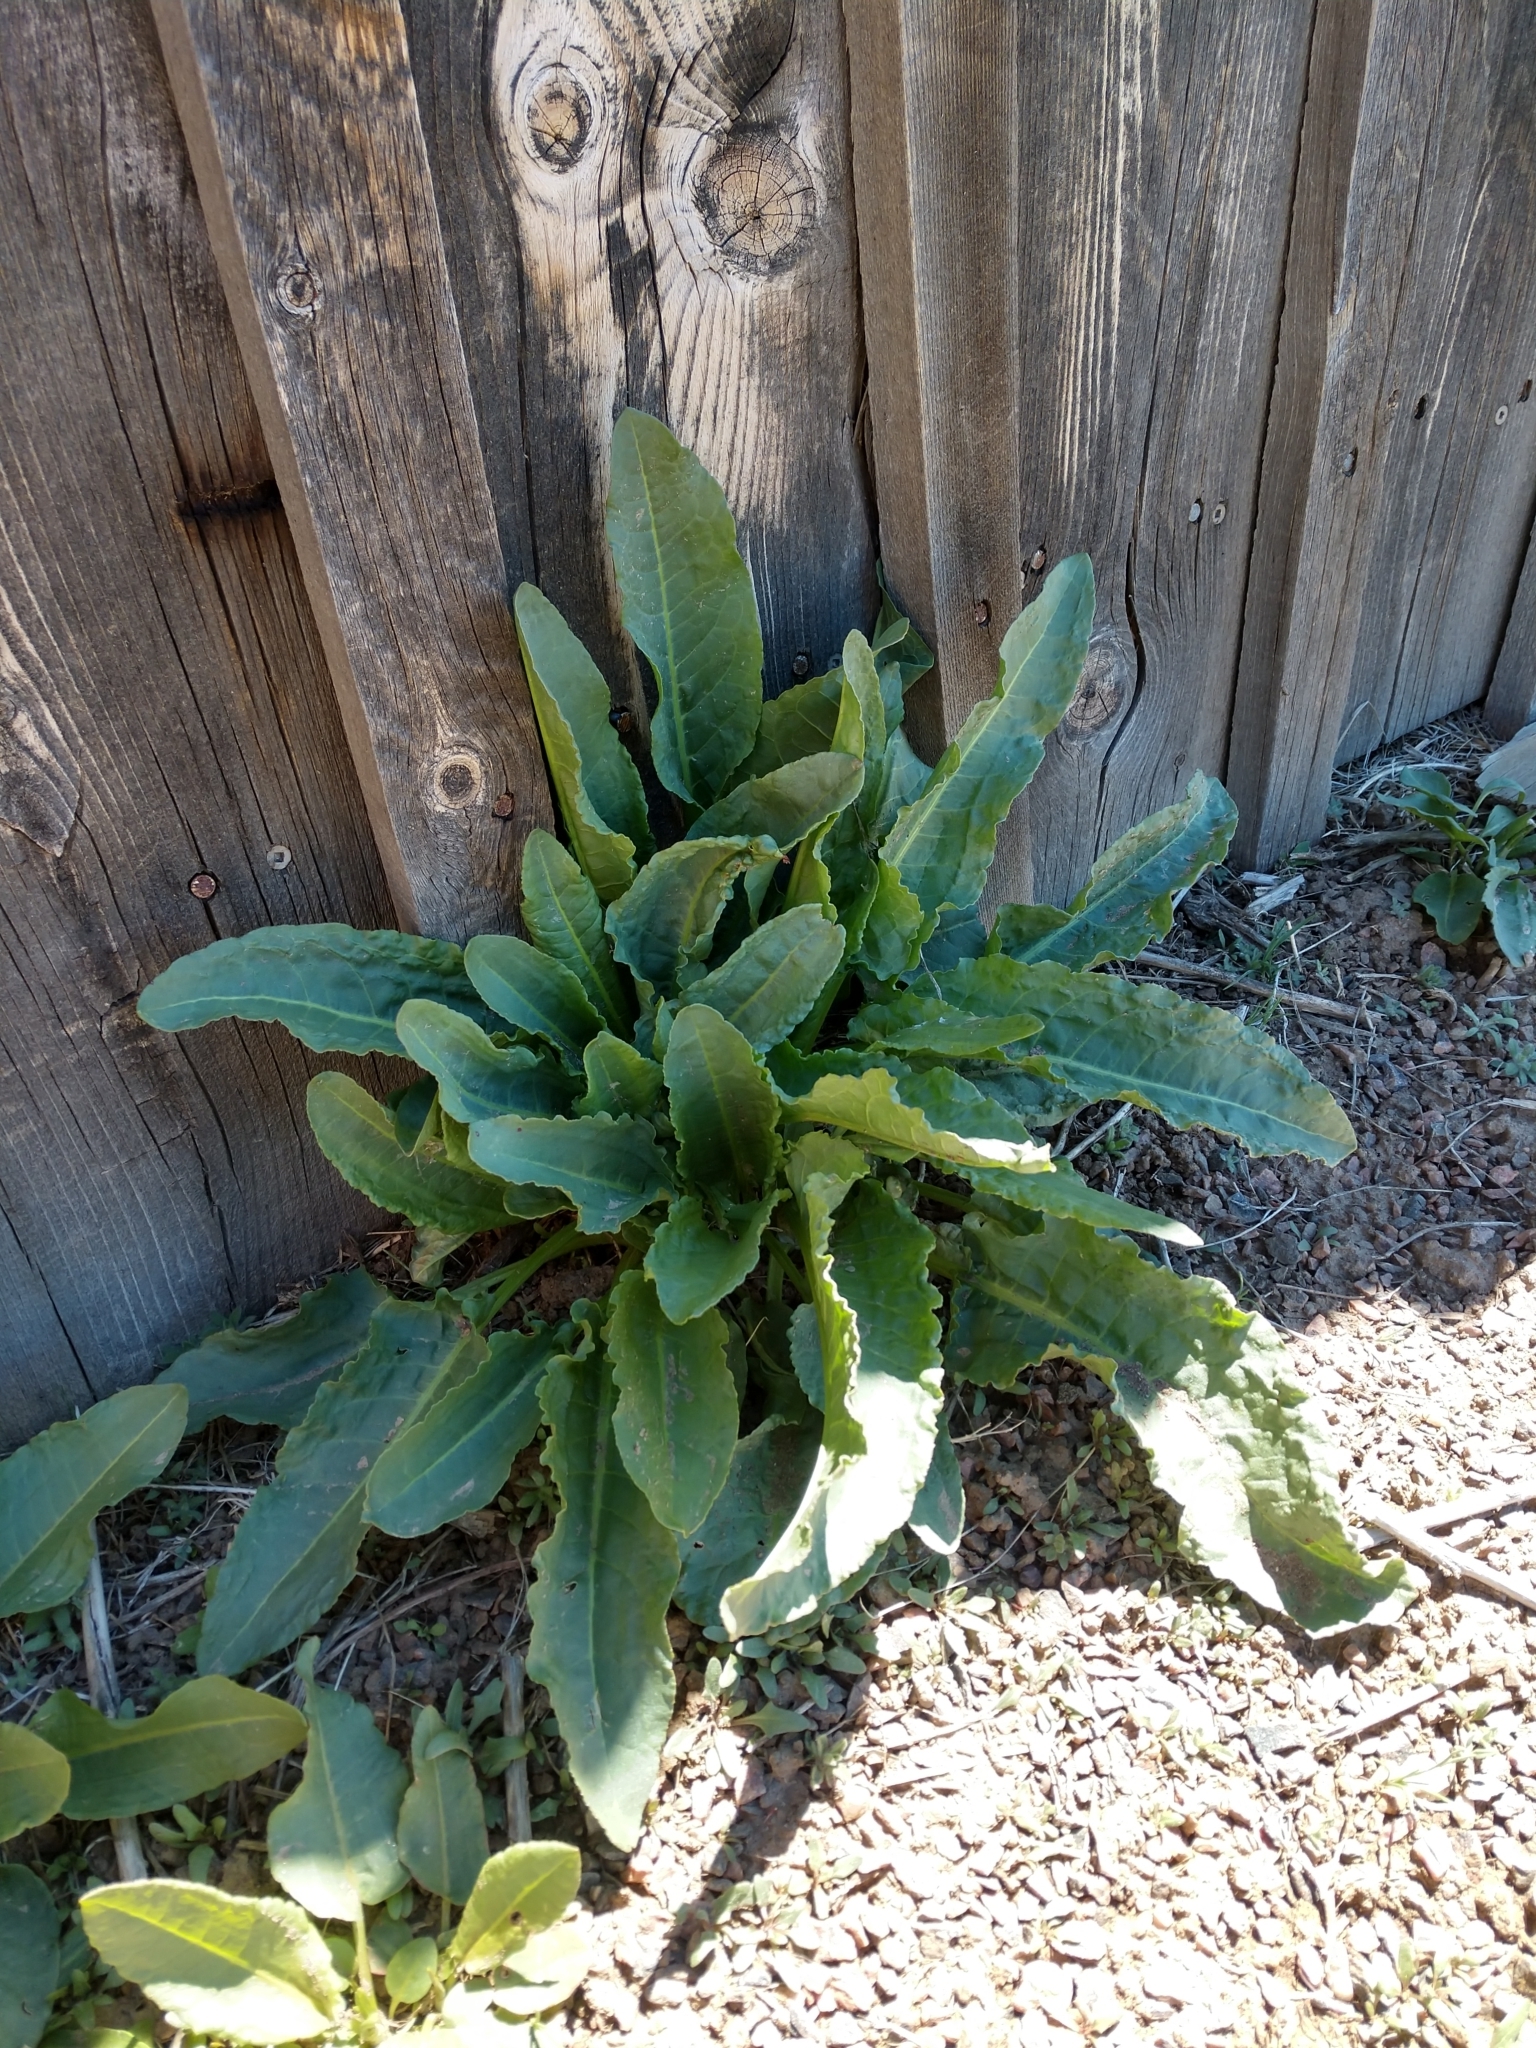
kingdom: Plantae
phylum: Tracheophyta
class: Magnoliopsida
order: Caryophyllales
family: Polygonaceae
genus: Rumex
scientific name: Rumex crispus
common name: Curled dock
